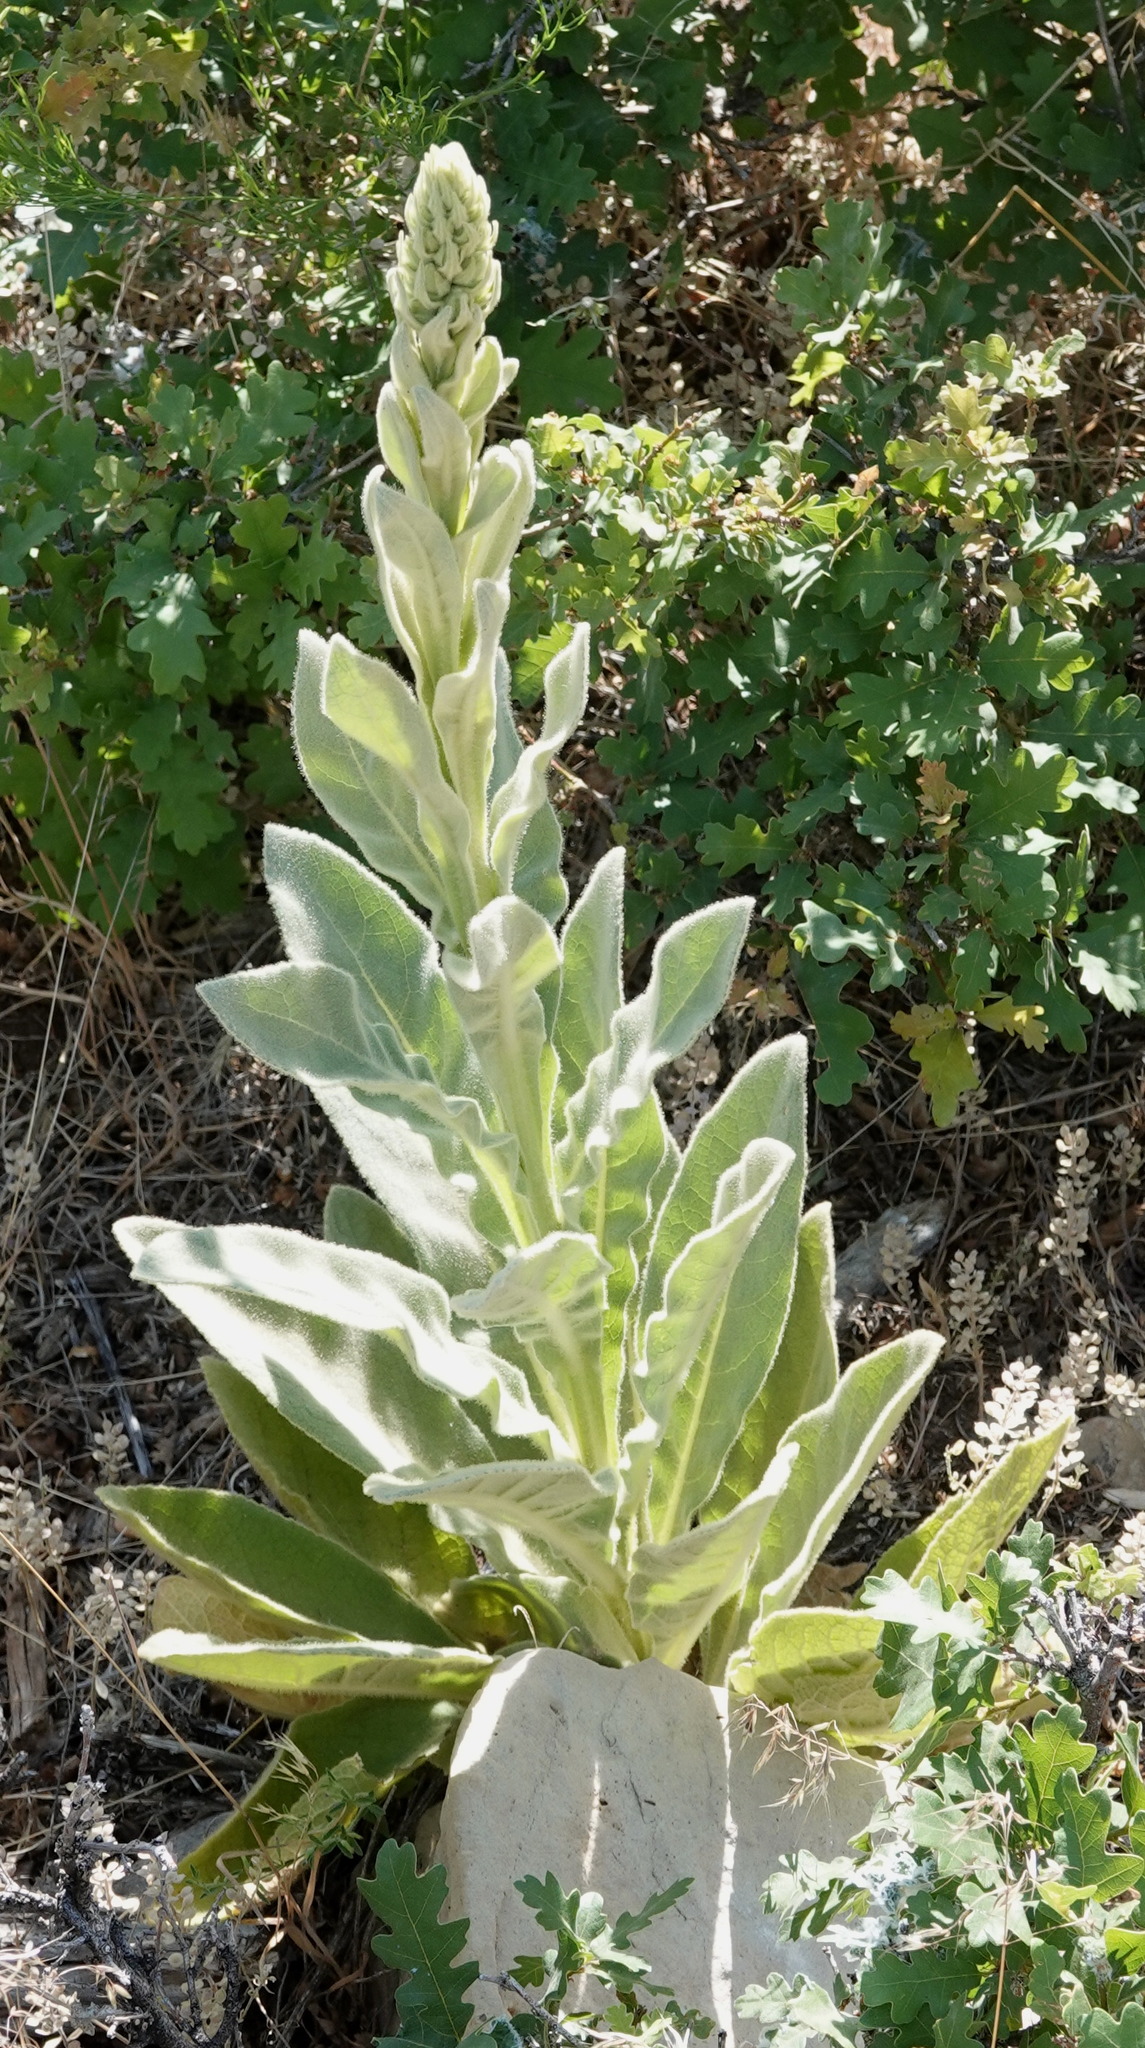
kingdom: Plantae
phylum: Tracheophyta
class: Magnoliopsida
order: Lamiales
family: Scrophulariaceae
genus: Verbascum
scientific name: Verbascum thapsus
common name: Common mullein
